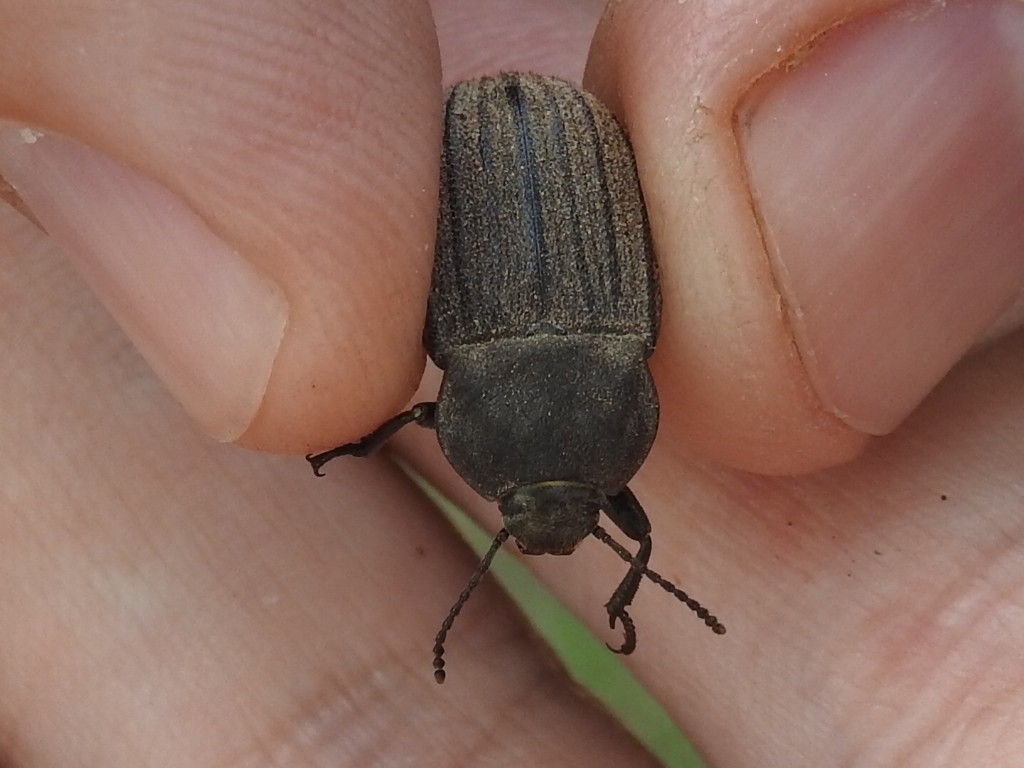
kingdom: Animalia
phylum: Arthropoda
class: Insecta
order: Coleoptera
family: Tenebrionidae
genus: Eleodes
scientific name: Eleodes tricostata
